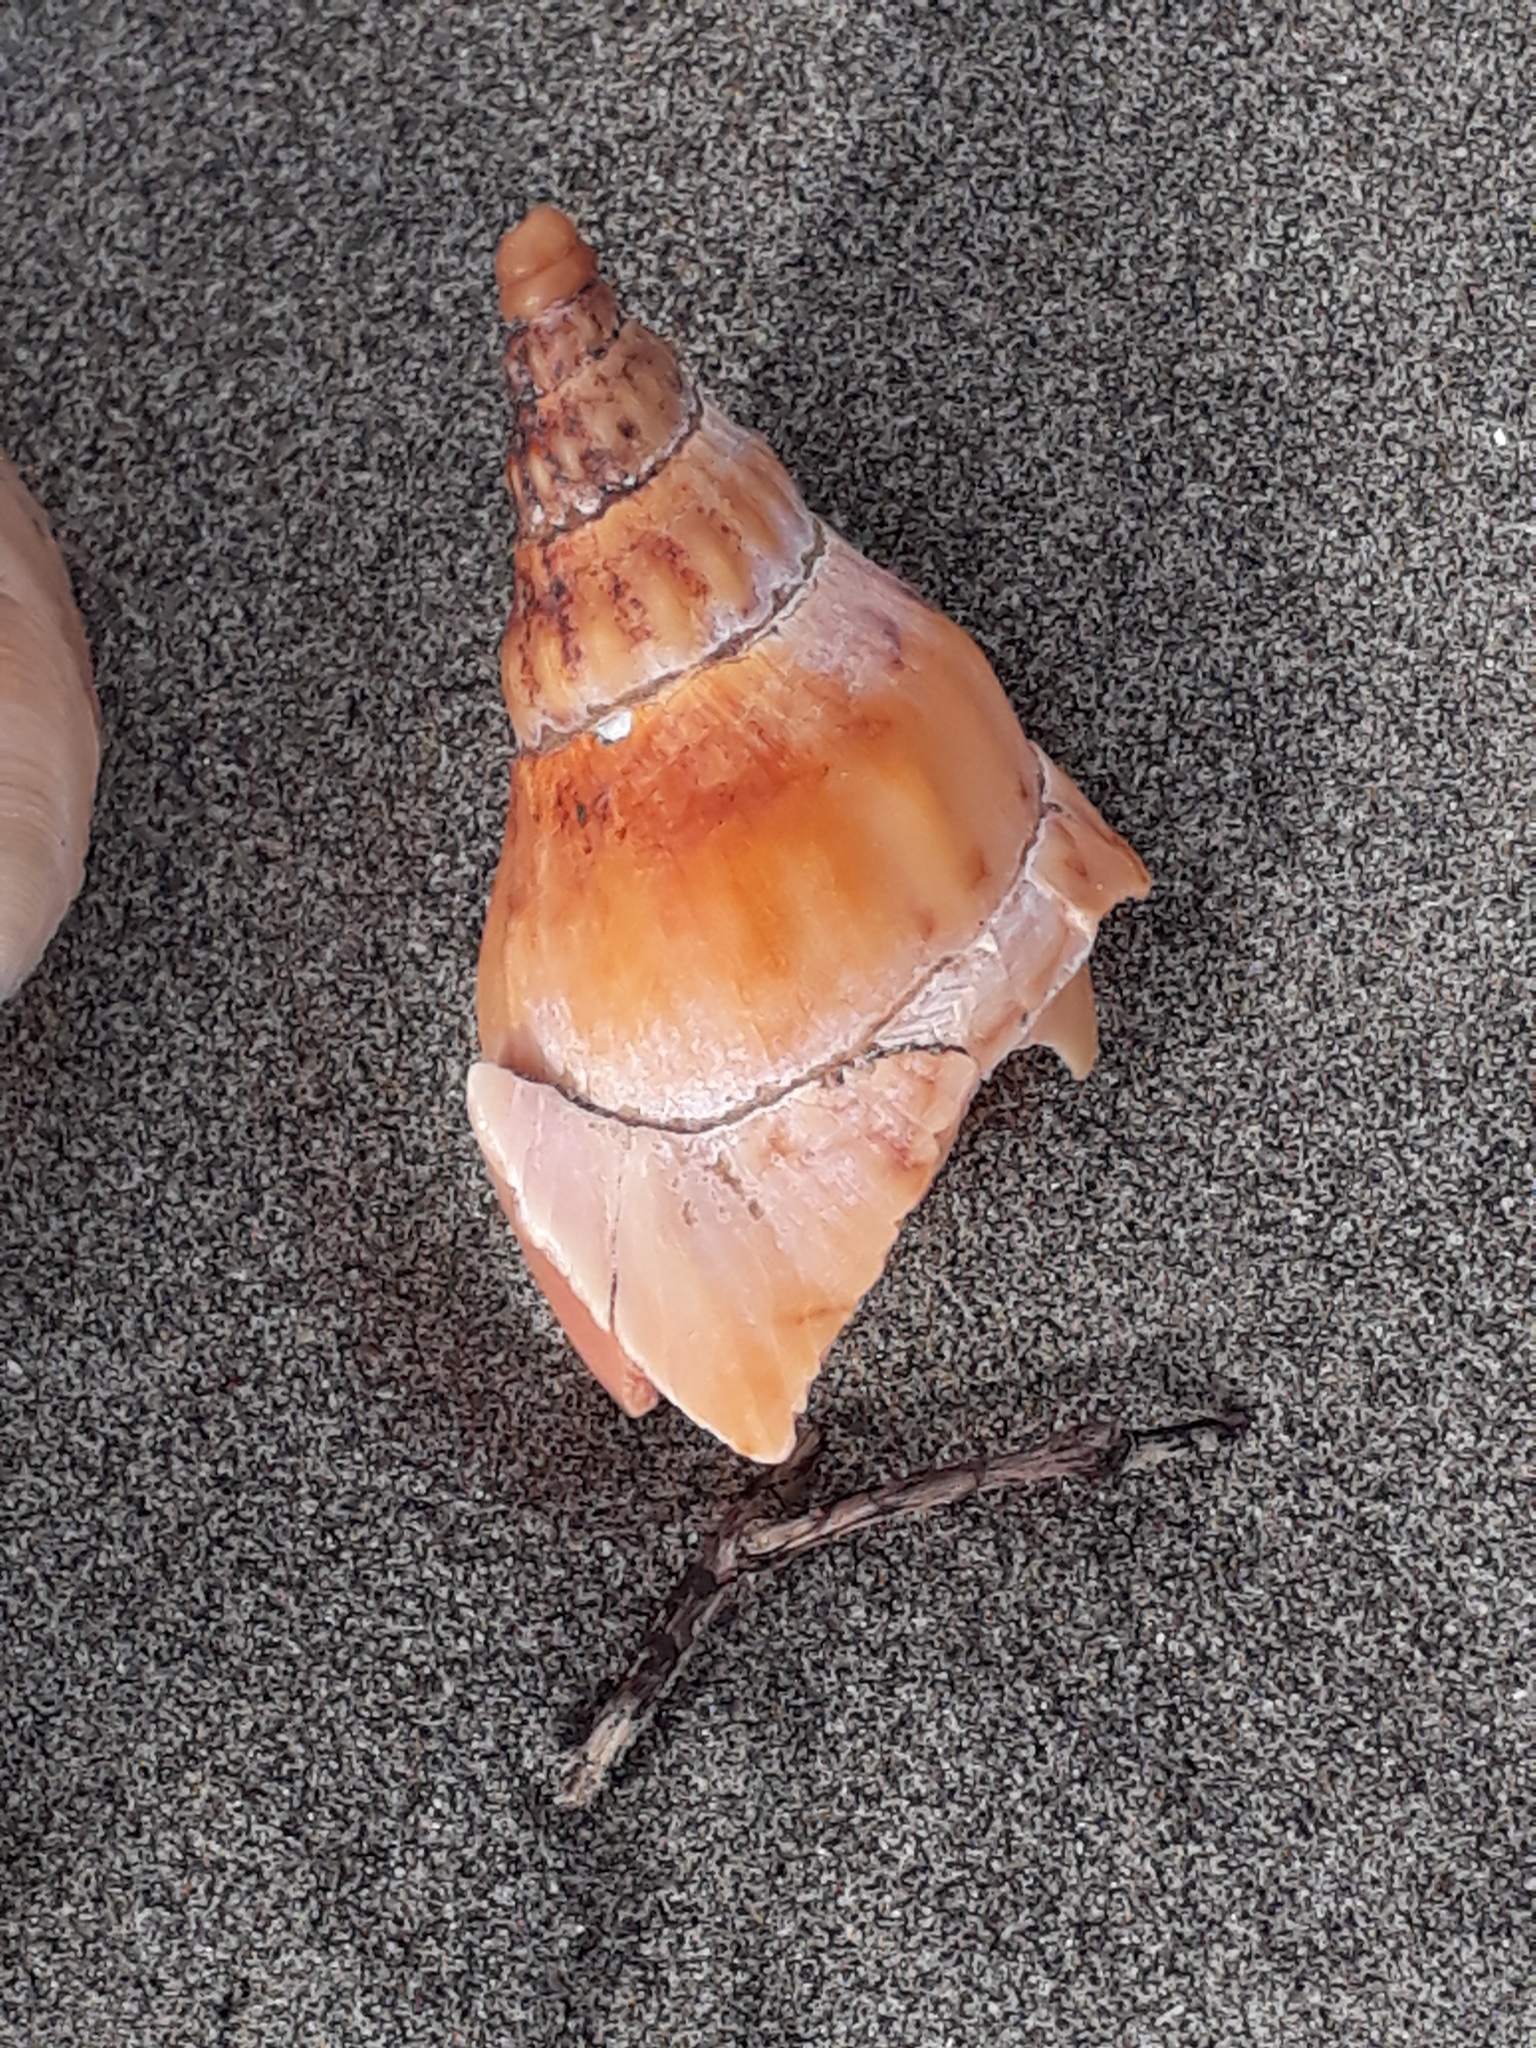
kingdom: Animalia
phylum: Mollusca
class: Gastropoda
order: Neogastropoda
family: Volutidae
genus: Alcithoe
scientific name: Alcithoe arabica
